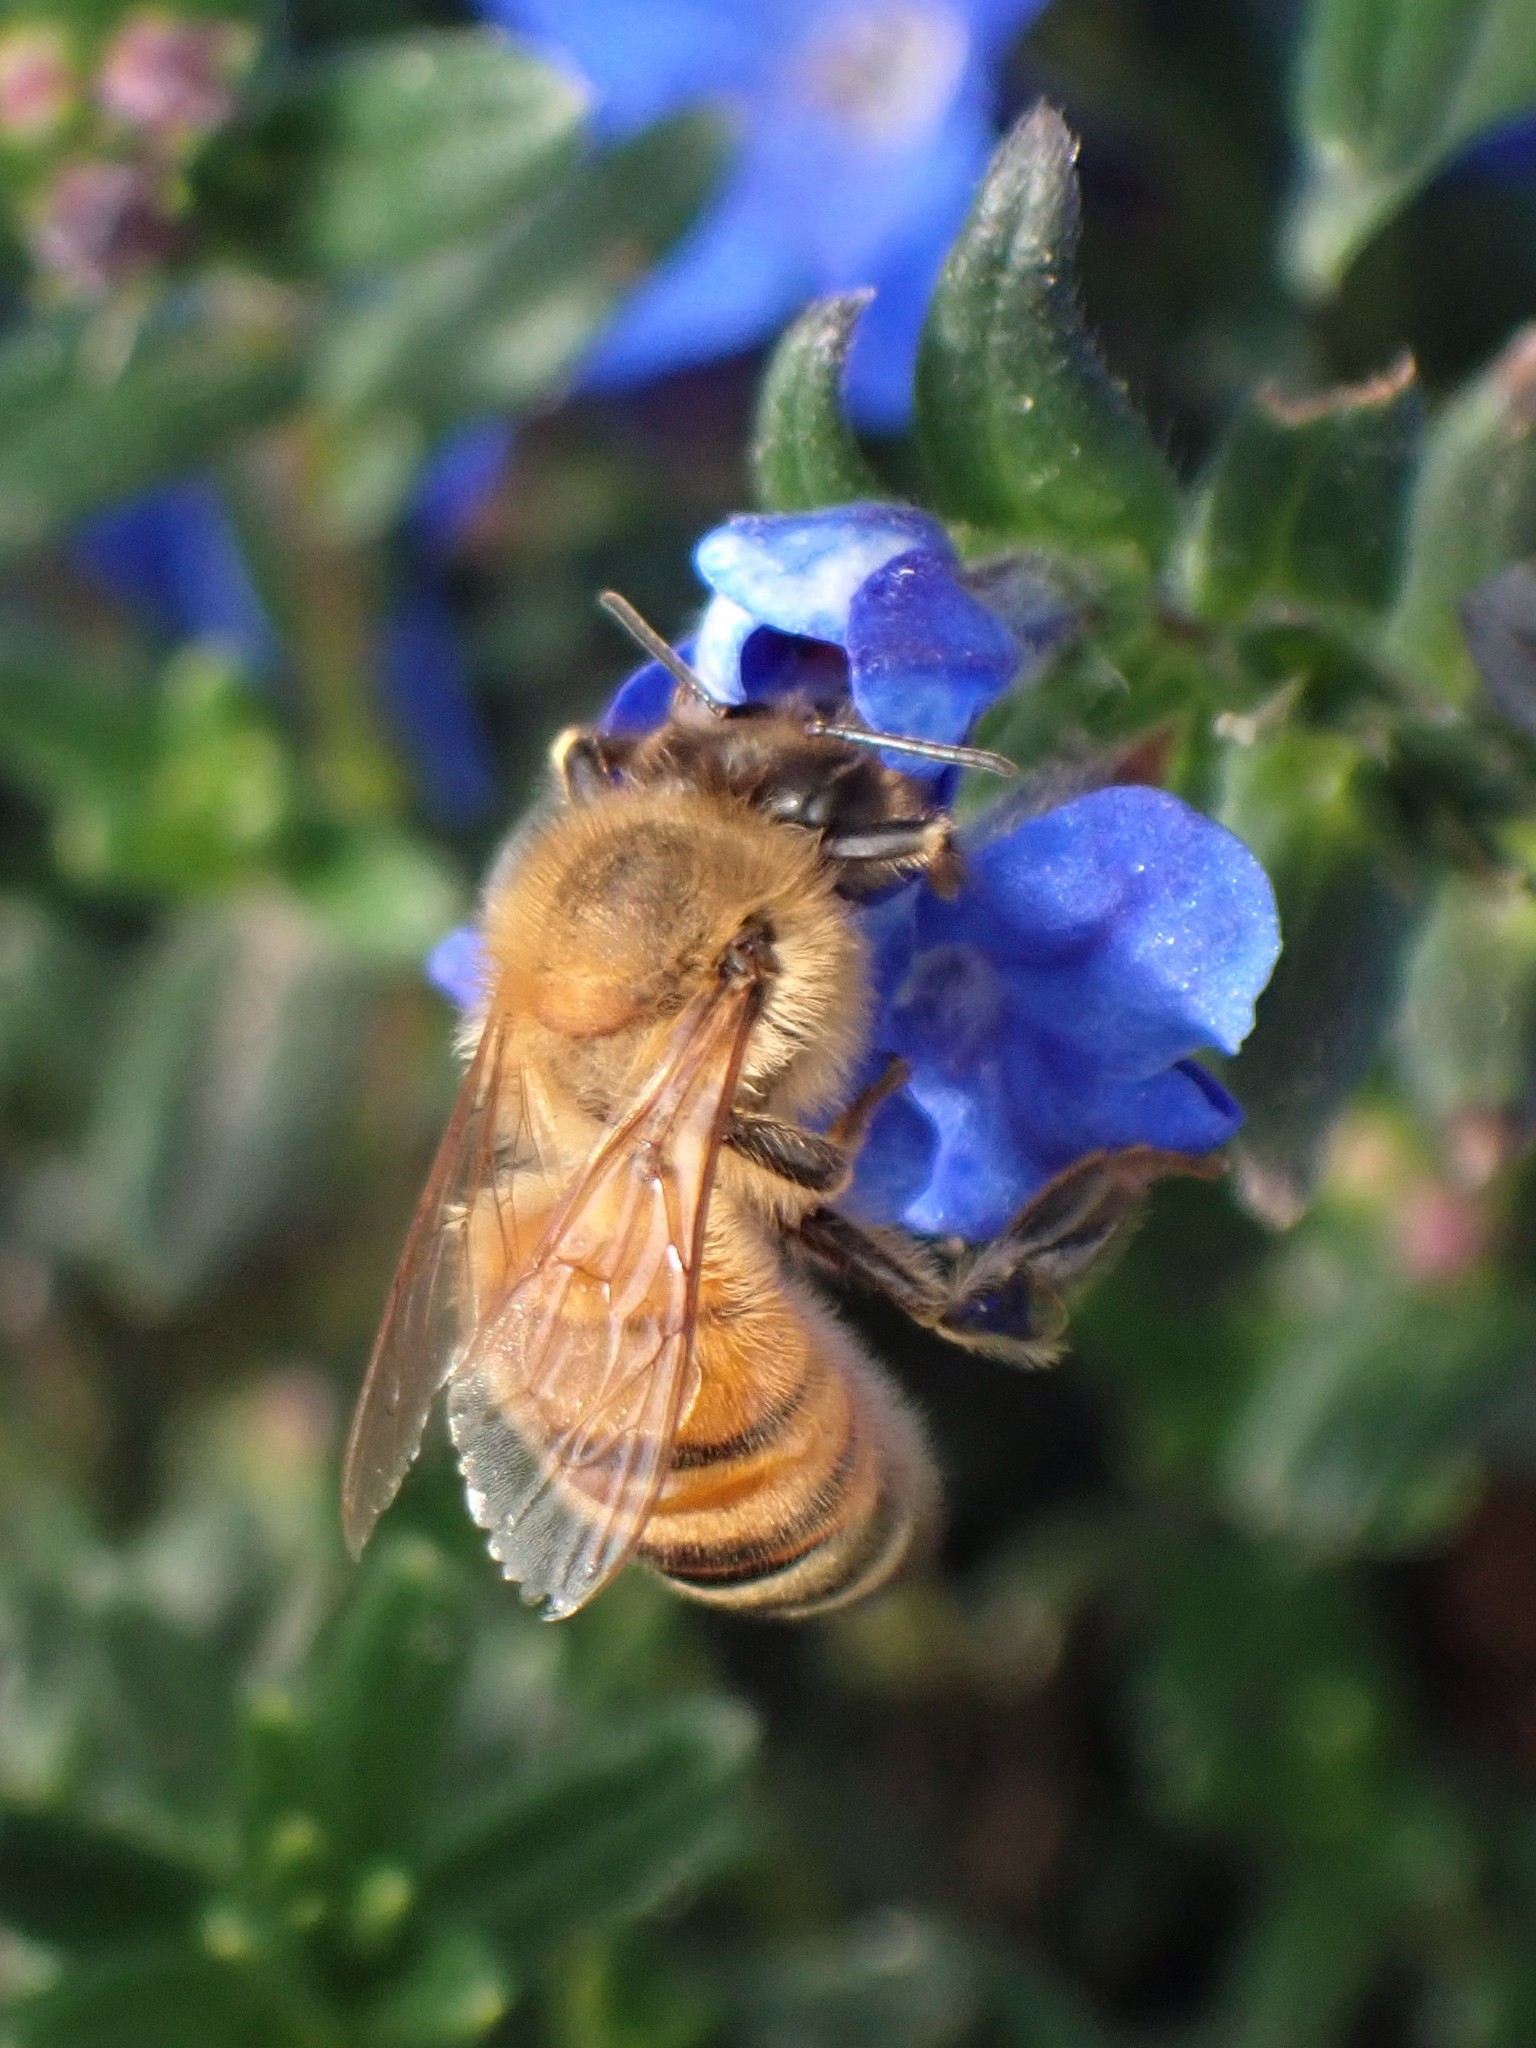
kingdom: Animalia
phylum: Arthropoda
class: Insecta
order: Hymenoptera
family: Apidae
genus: Apis
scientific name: Apis mellifera
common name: Honey bee
